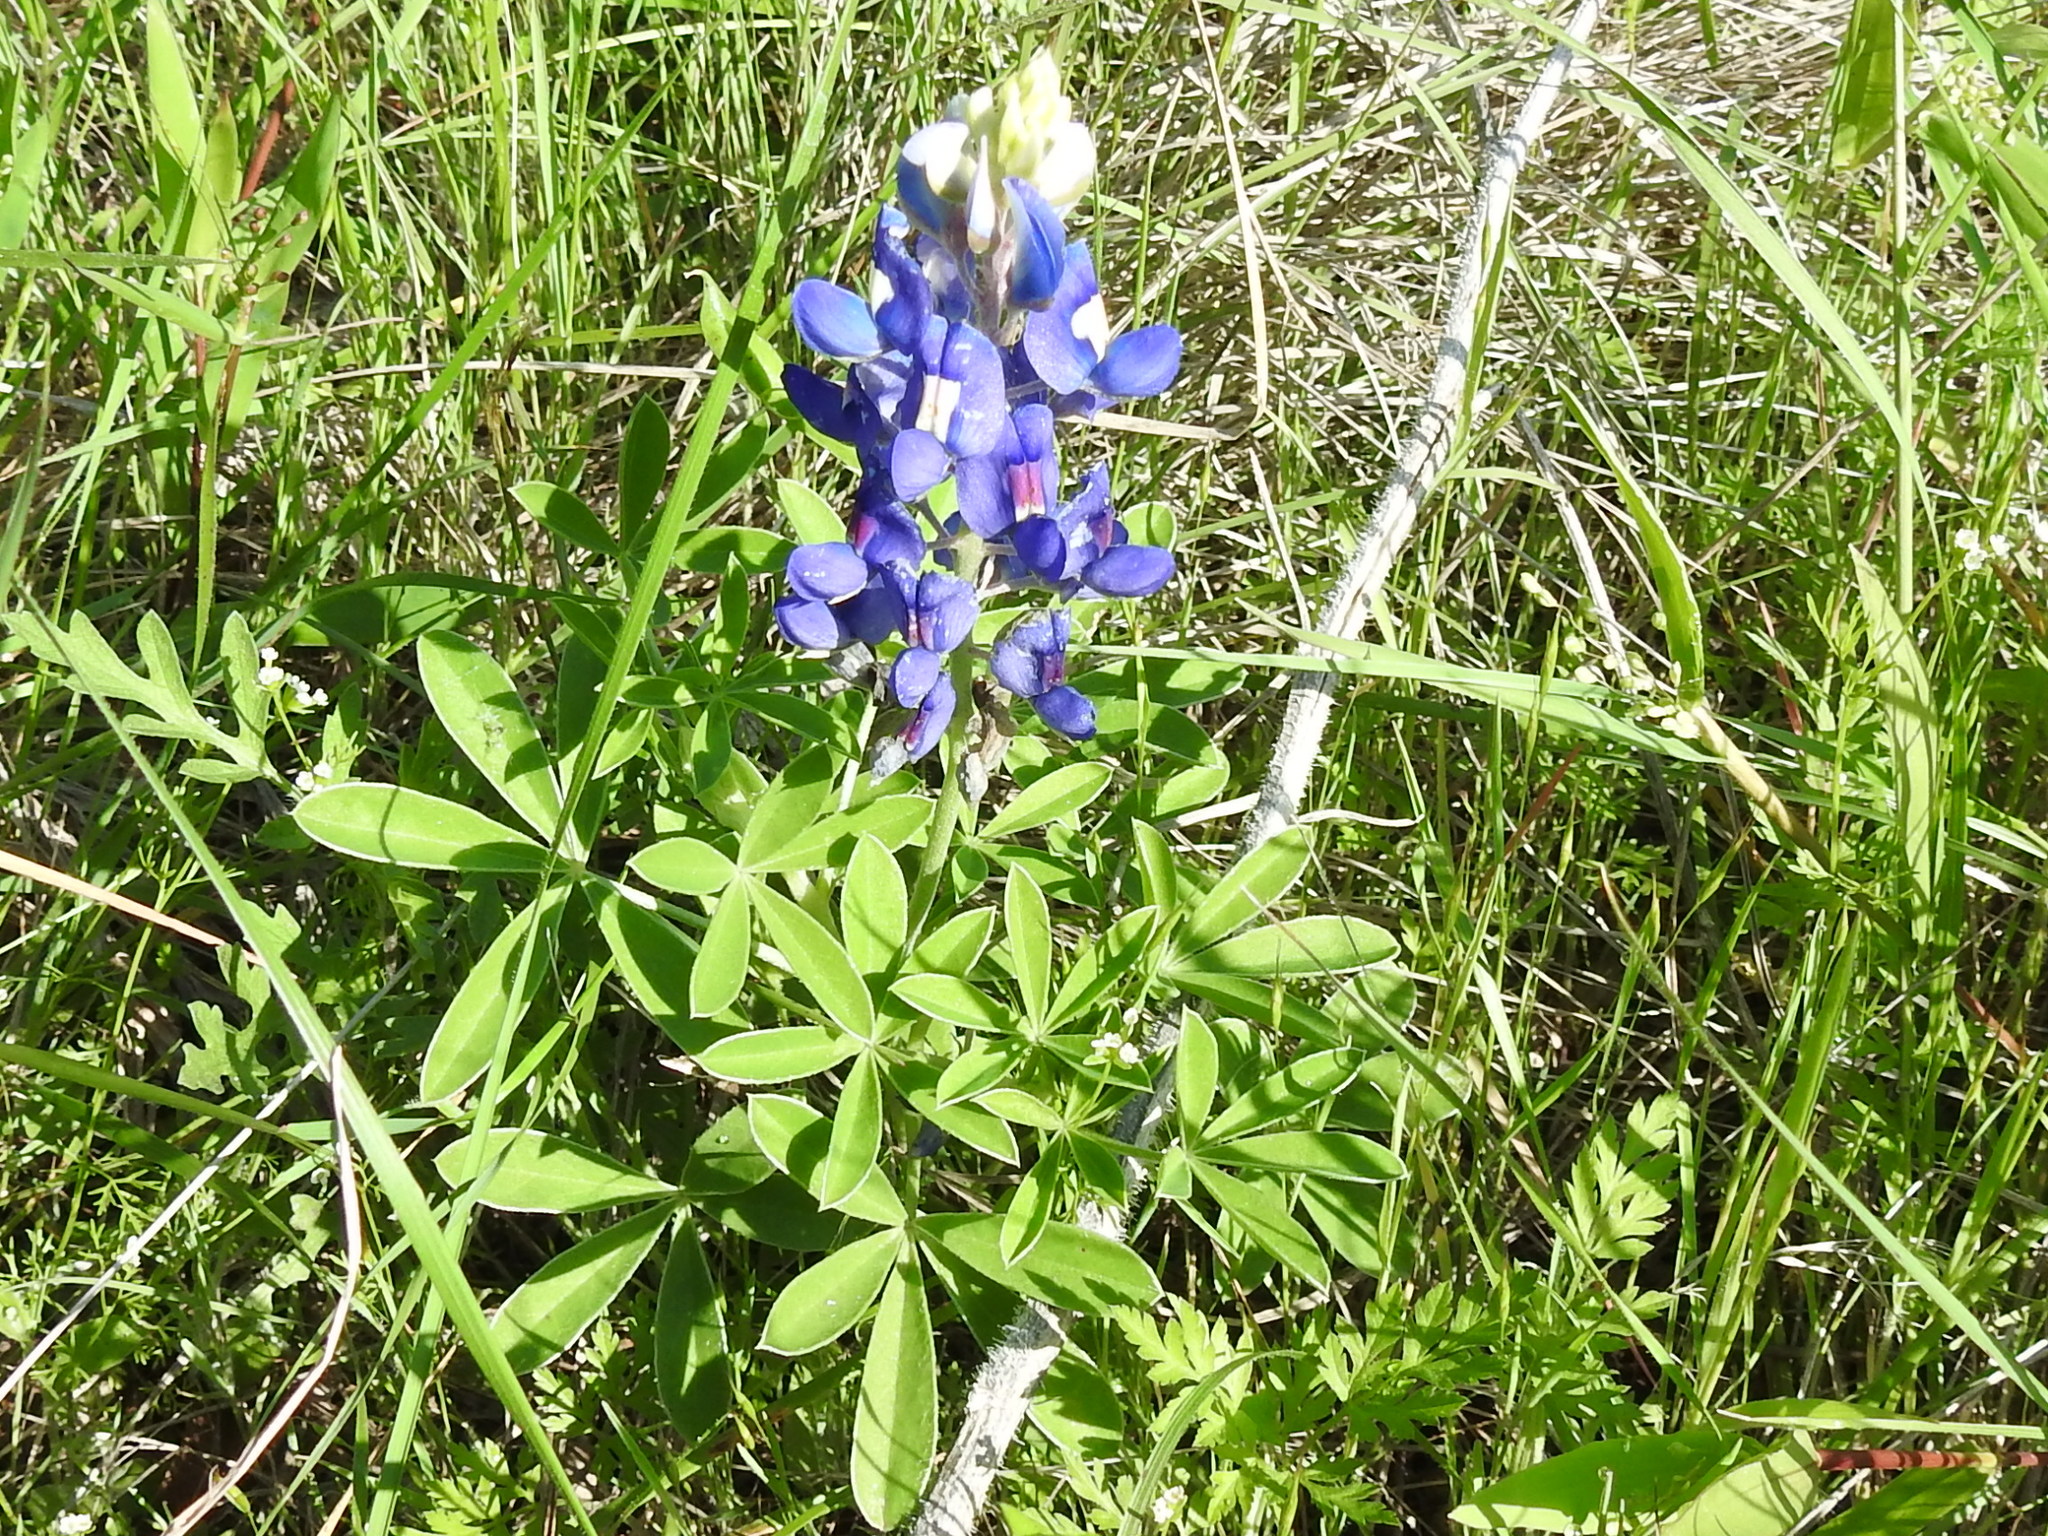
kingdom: Plantae
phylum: Tracheophyta
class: Magnoliopsida
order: Fabales
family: Fabaceae
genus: Lupinus
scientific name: Lupinus texensis
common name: Texas bluebonnet
